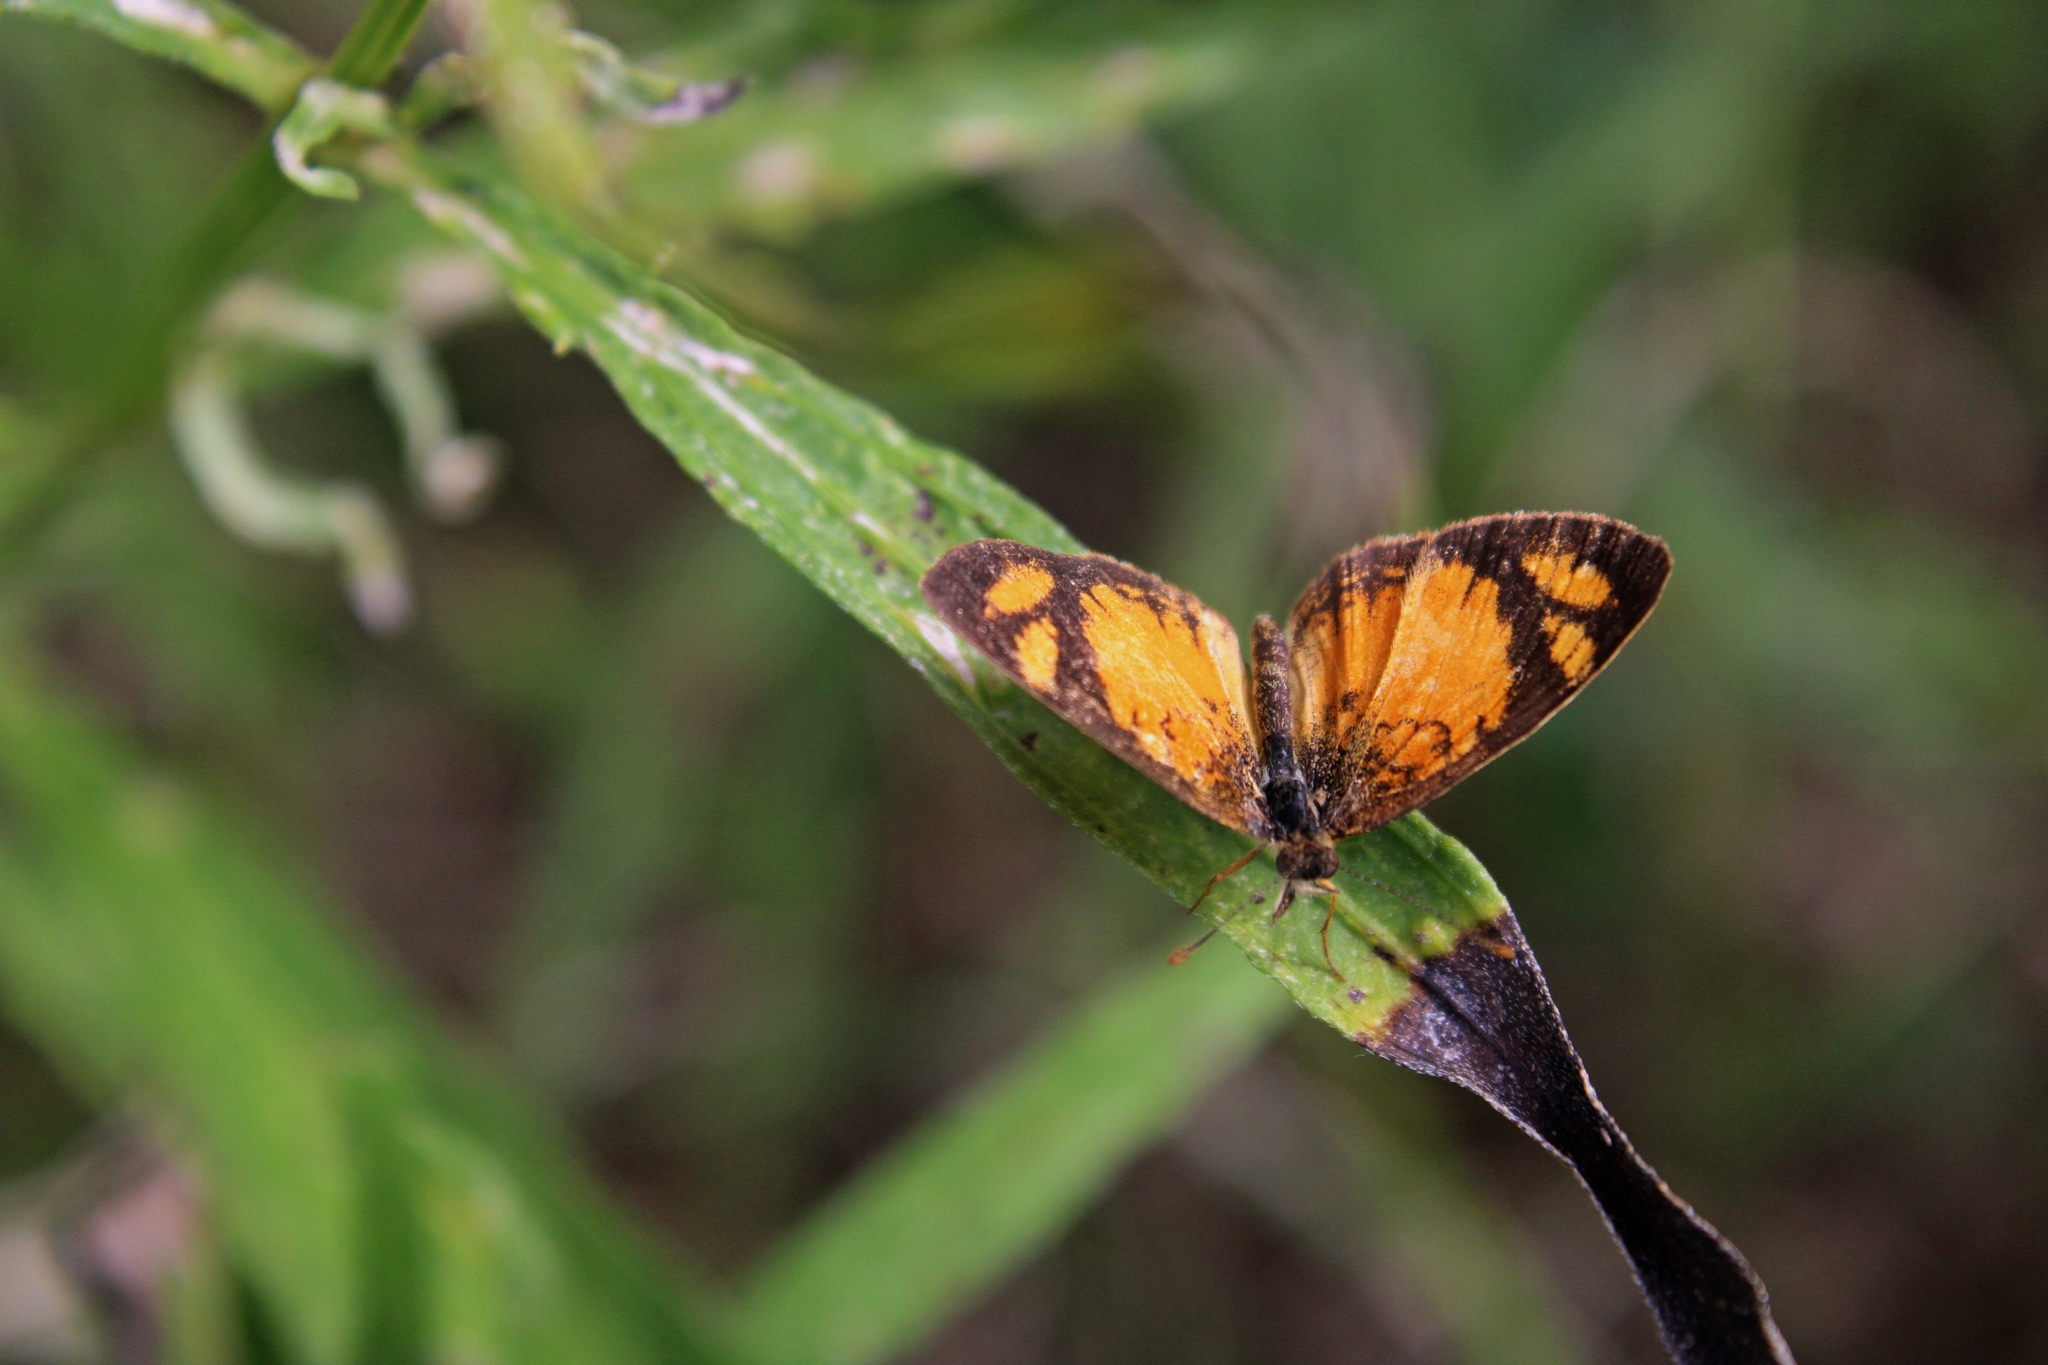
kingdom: Animalia
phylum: Arthropoda
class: Insecta
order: Lepidoptera
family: Nymphalidae
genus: Tegosa
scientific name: Tegosa claudina
